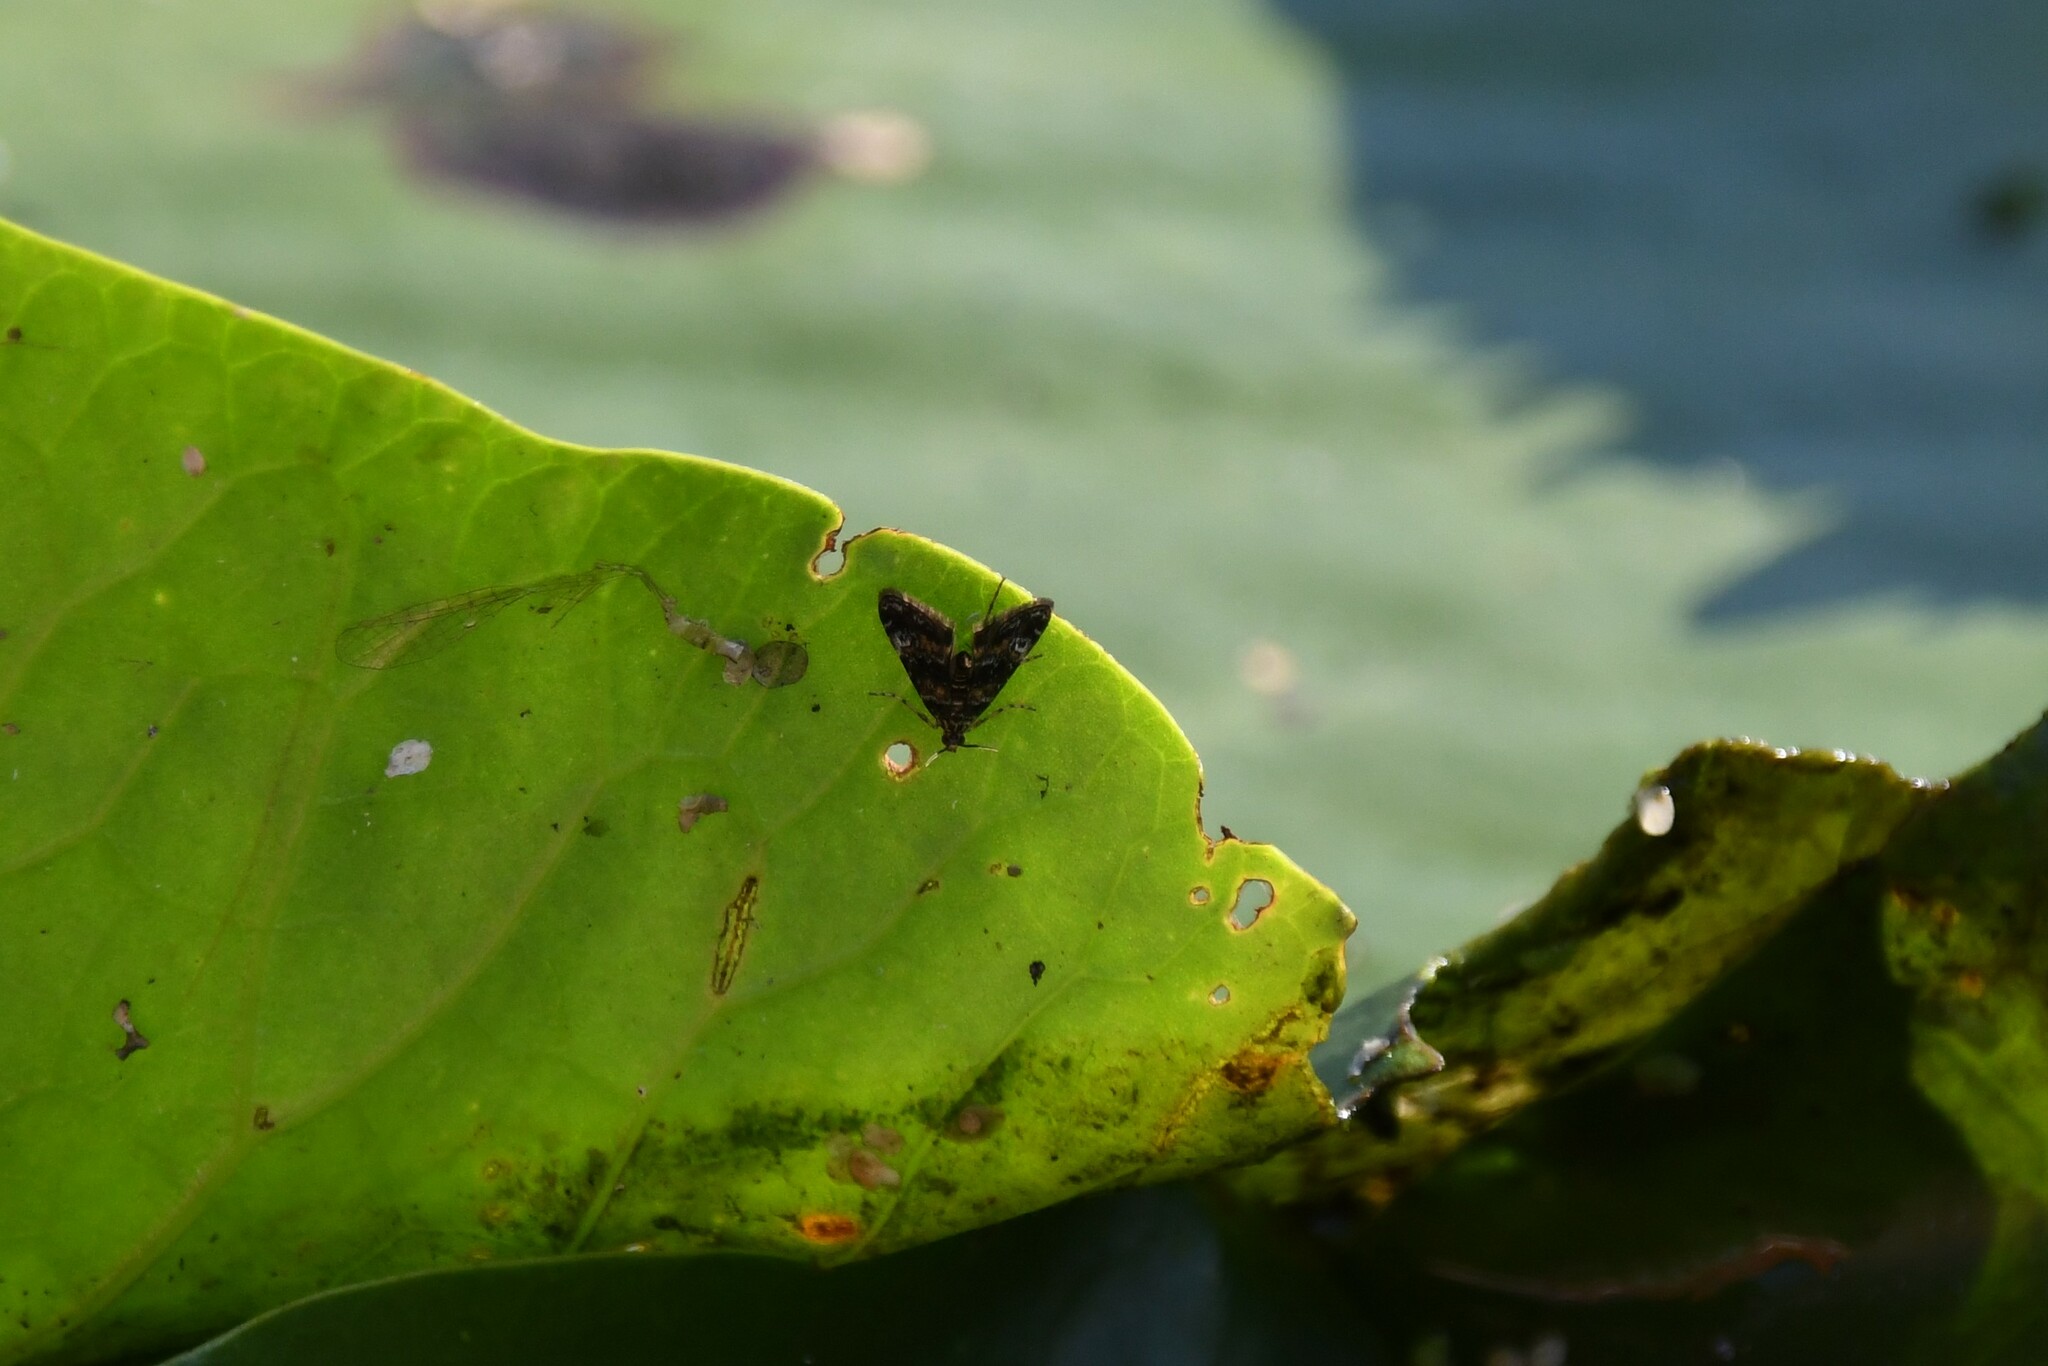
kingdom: Animalia
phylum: Arthropoda
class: Insecta
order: Lepidoptera
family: Crambidae
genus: Elophila
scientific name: Elophila obliteralis
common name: Waterlily leafcutter moth
